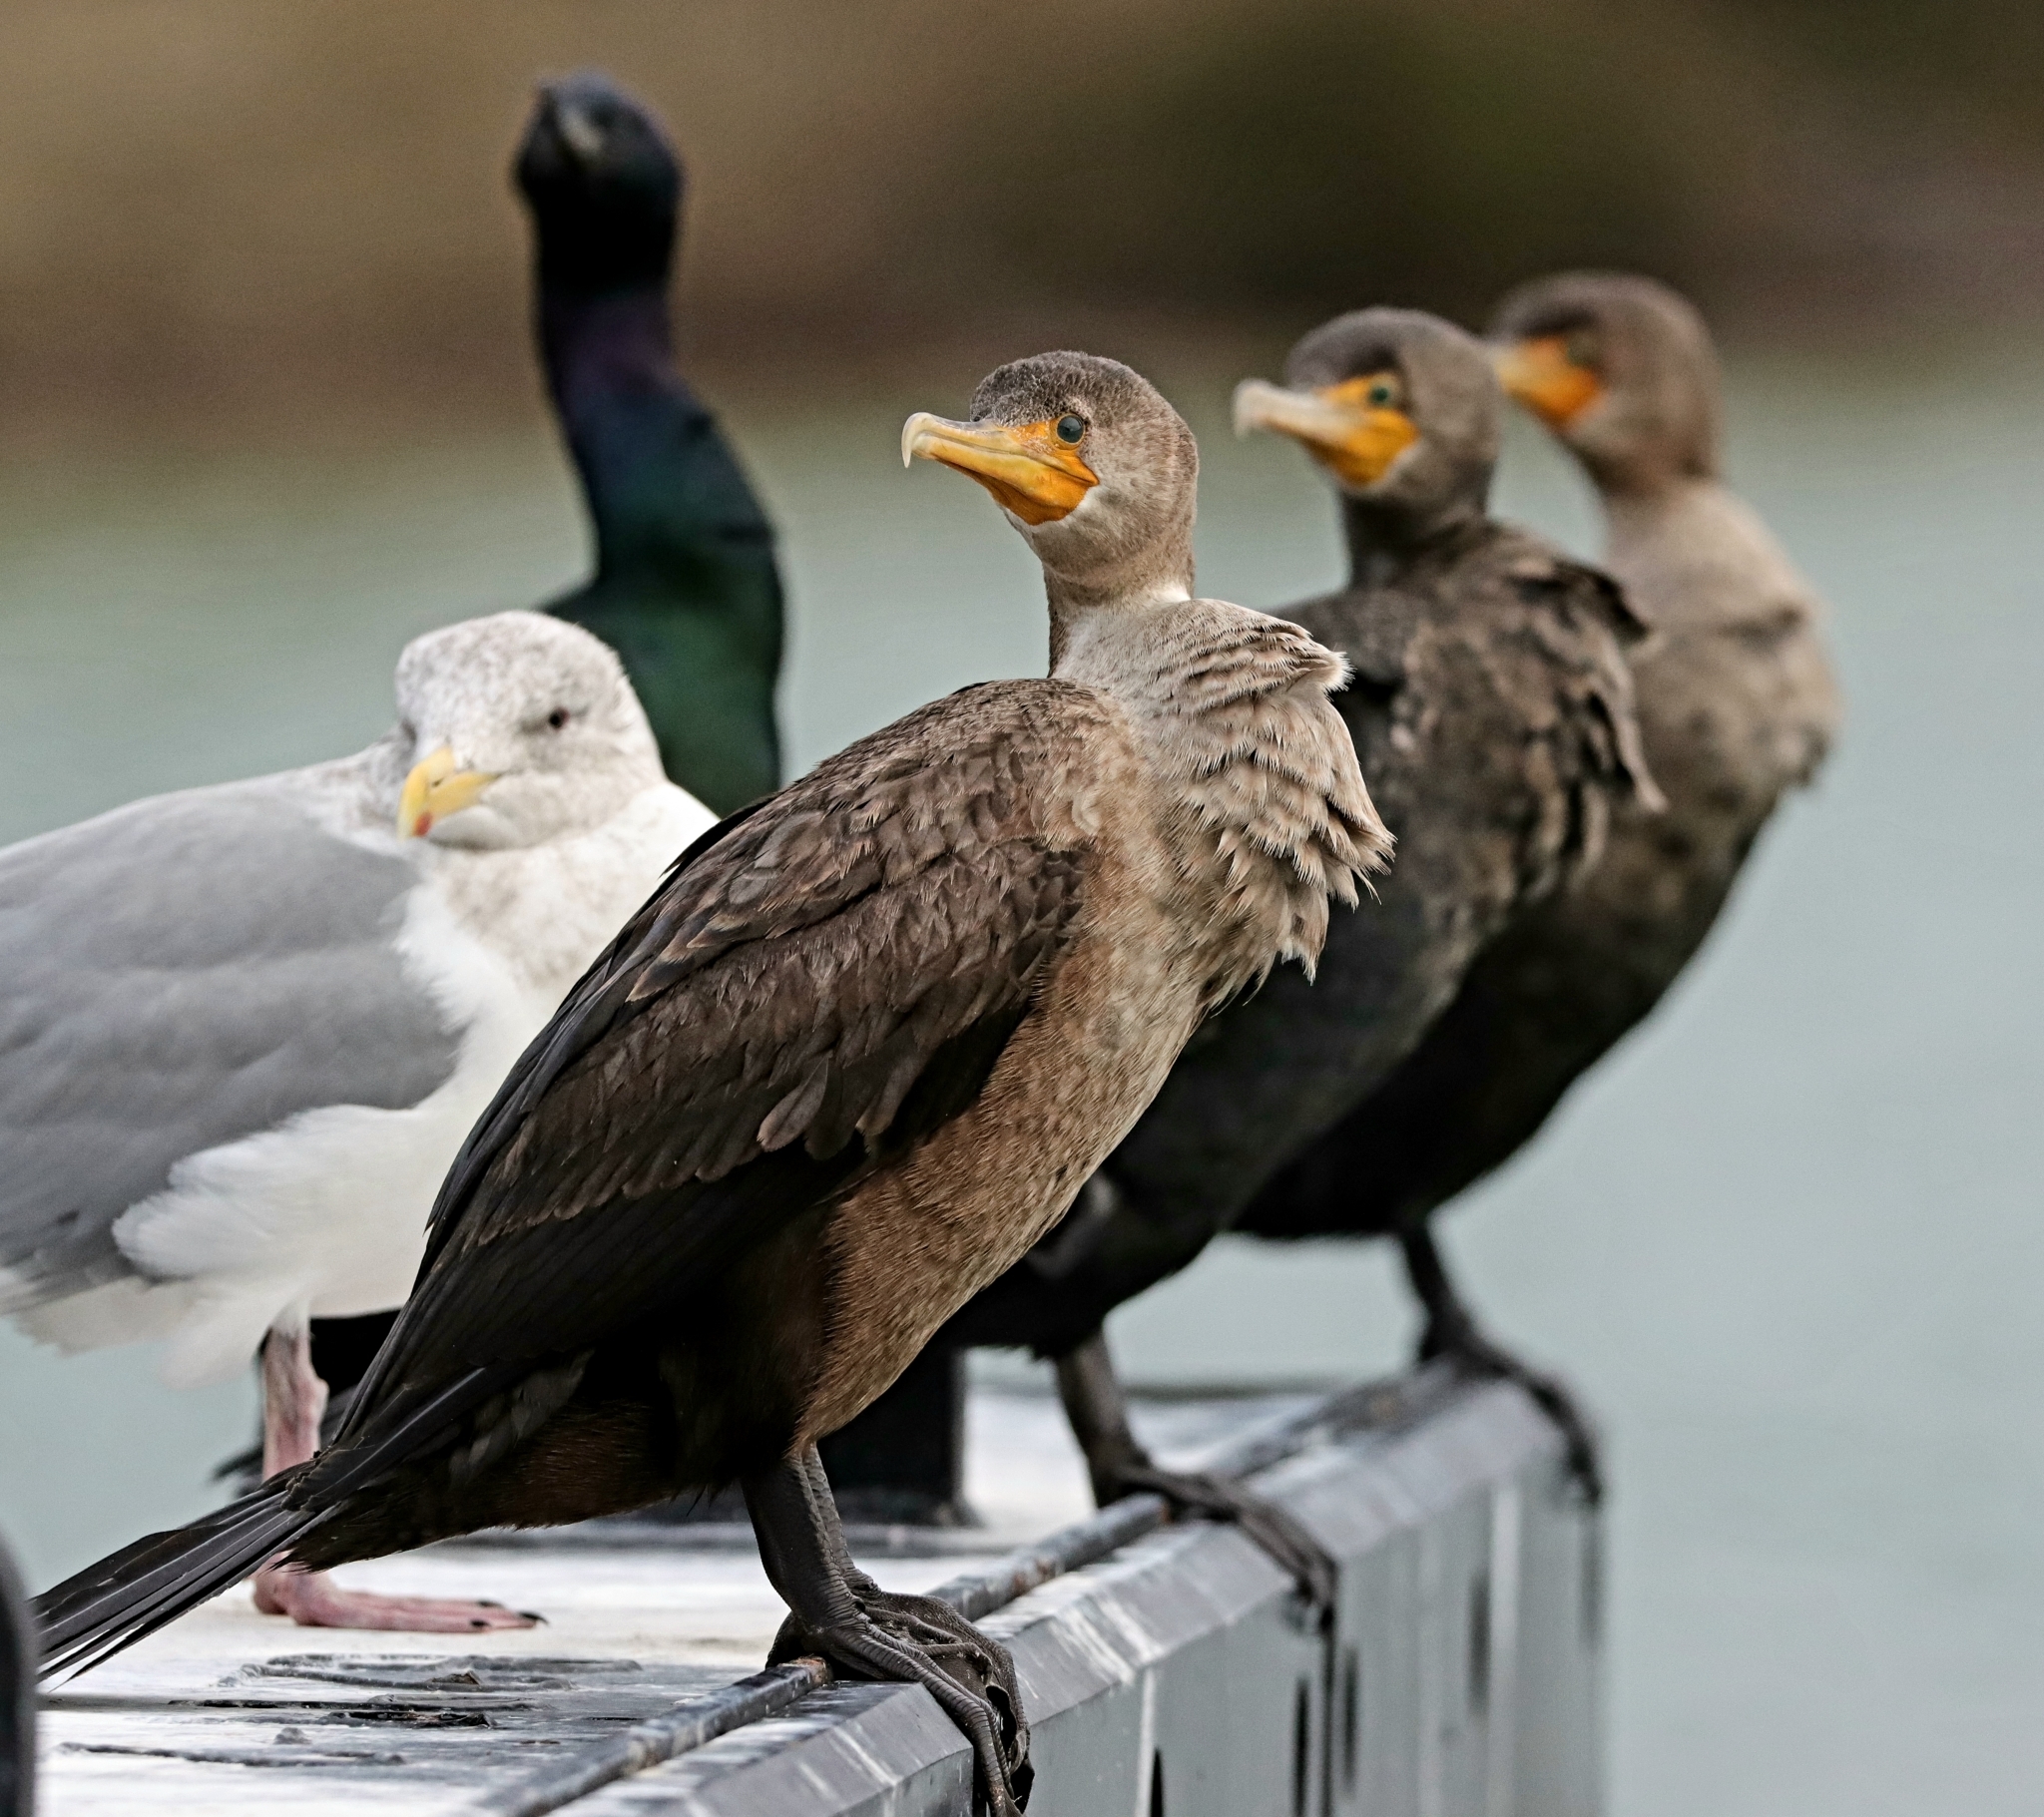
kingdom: Animalia
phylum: Chordata
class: Aves
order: Suliformes
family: Phalacrocoracidae
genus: Phalacrocorax
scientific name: Phalacrocorax auritus
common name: Double-crested cormorant
